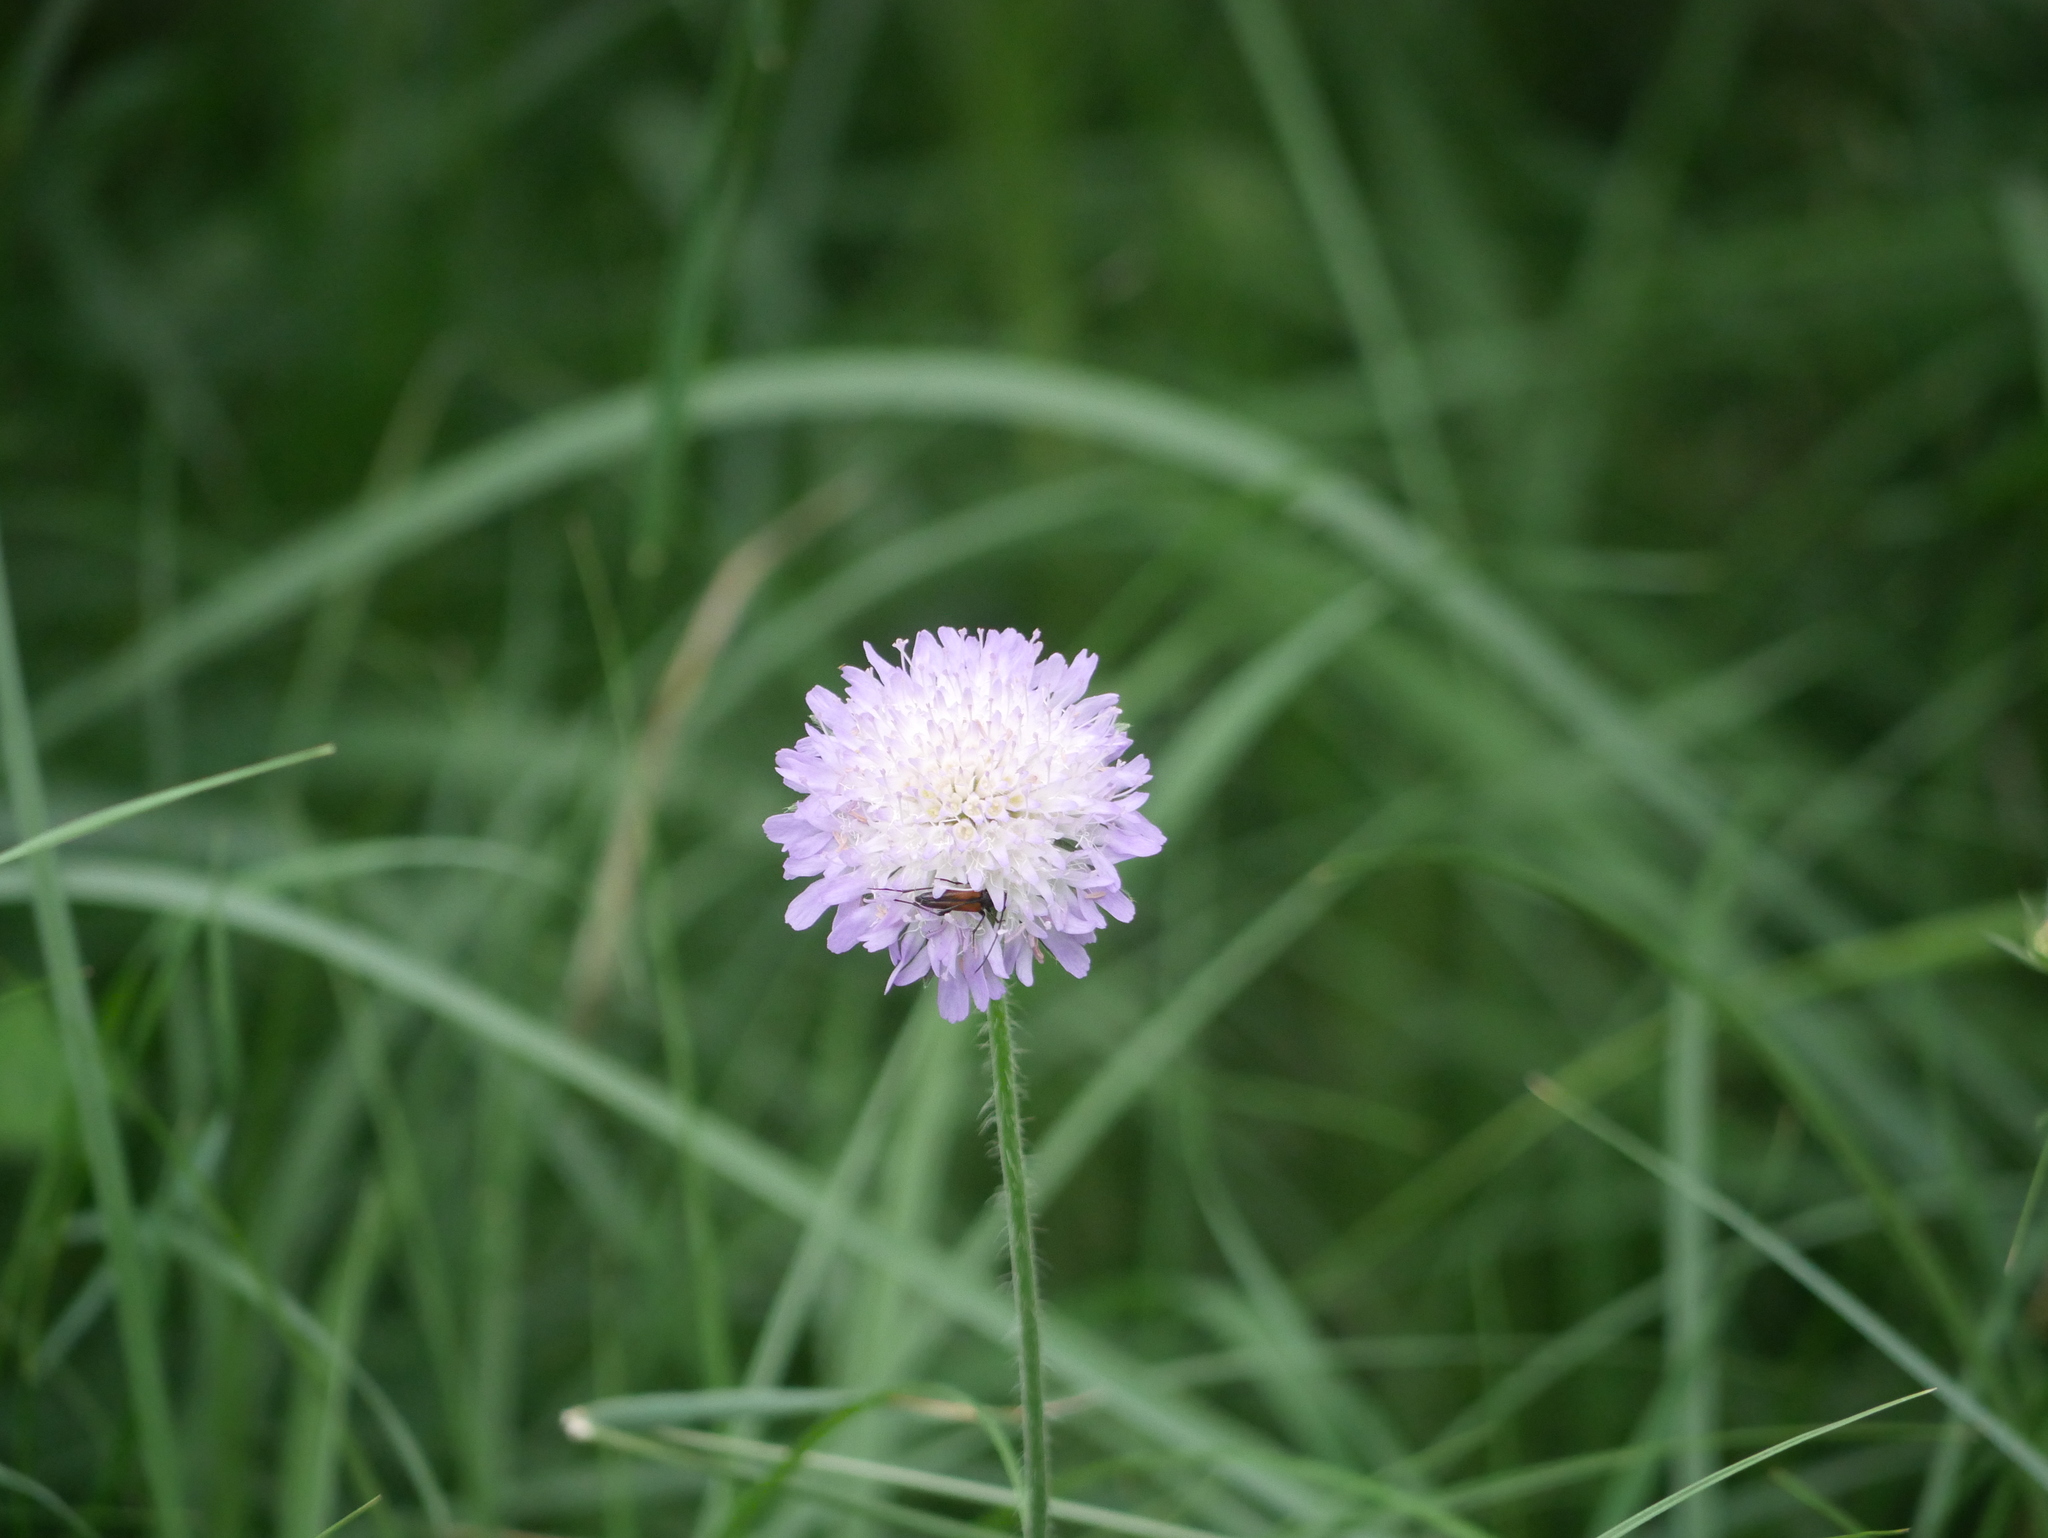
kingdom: Plantae
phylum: Tracheophyta
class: Magnoliopsida
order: Dipsacales
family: Caprifoliaceae
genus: Knautia
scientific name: Knautia arvensis
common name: Field scabiosa
